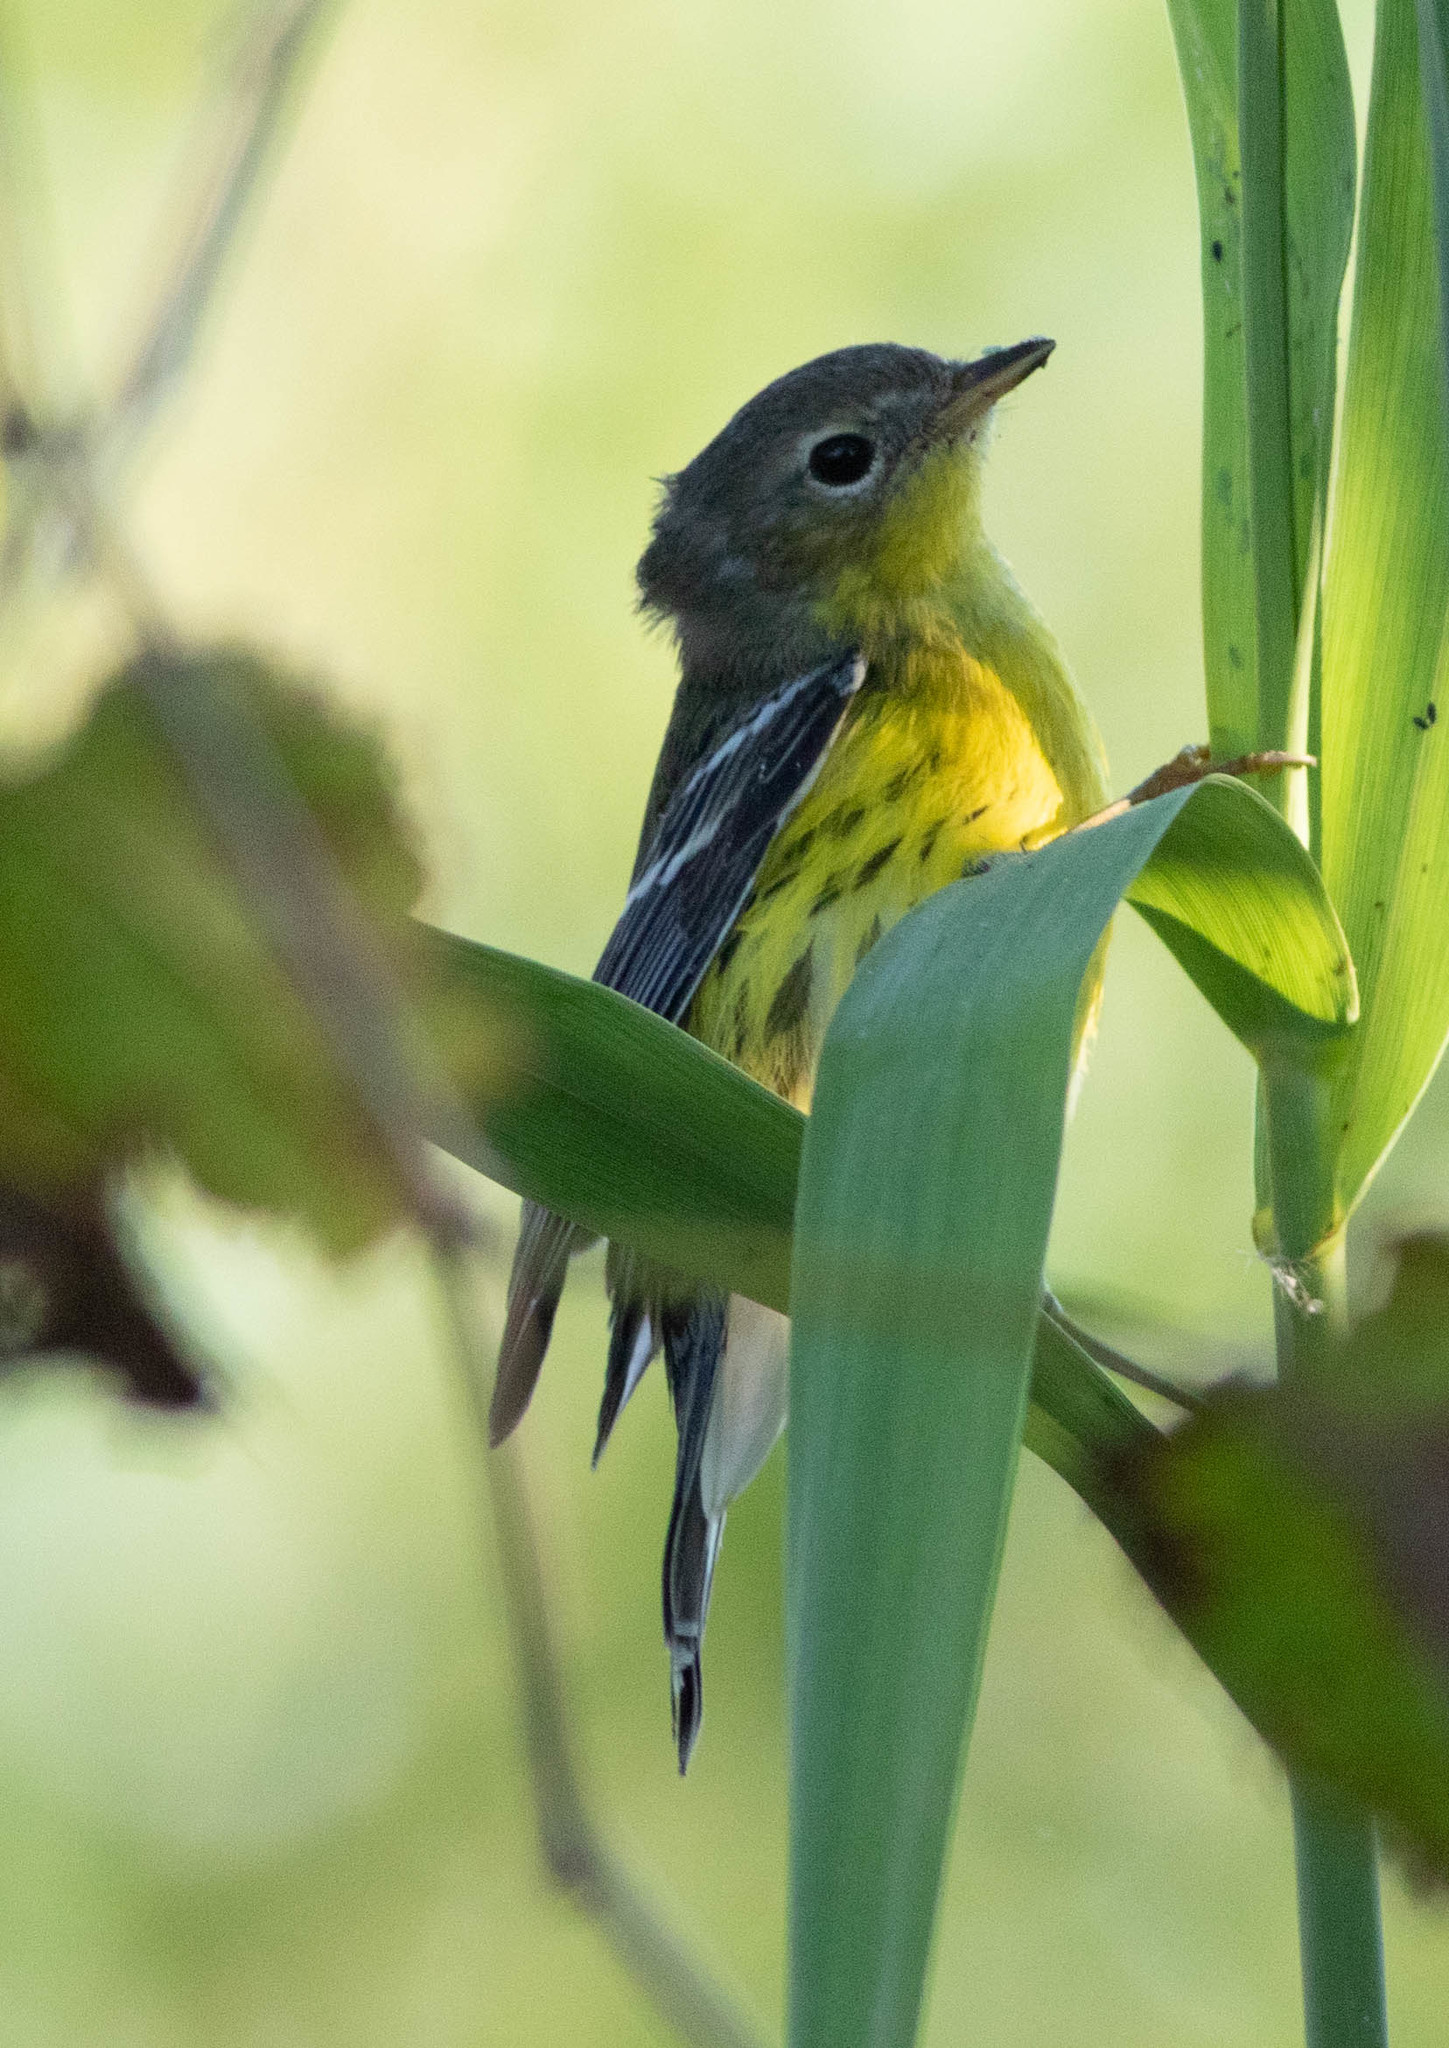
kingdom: Animalia
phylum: Chordata
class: Aves
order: Passeriformes
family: Parulidae
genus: Setophaga
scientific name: Setophaga magnolia
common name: Magnolia warbler
